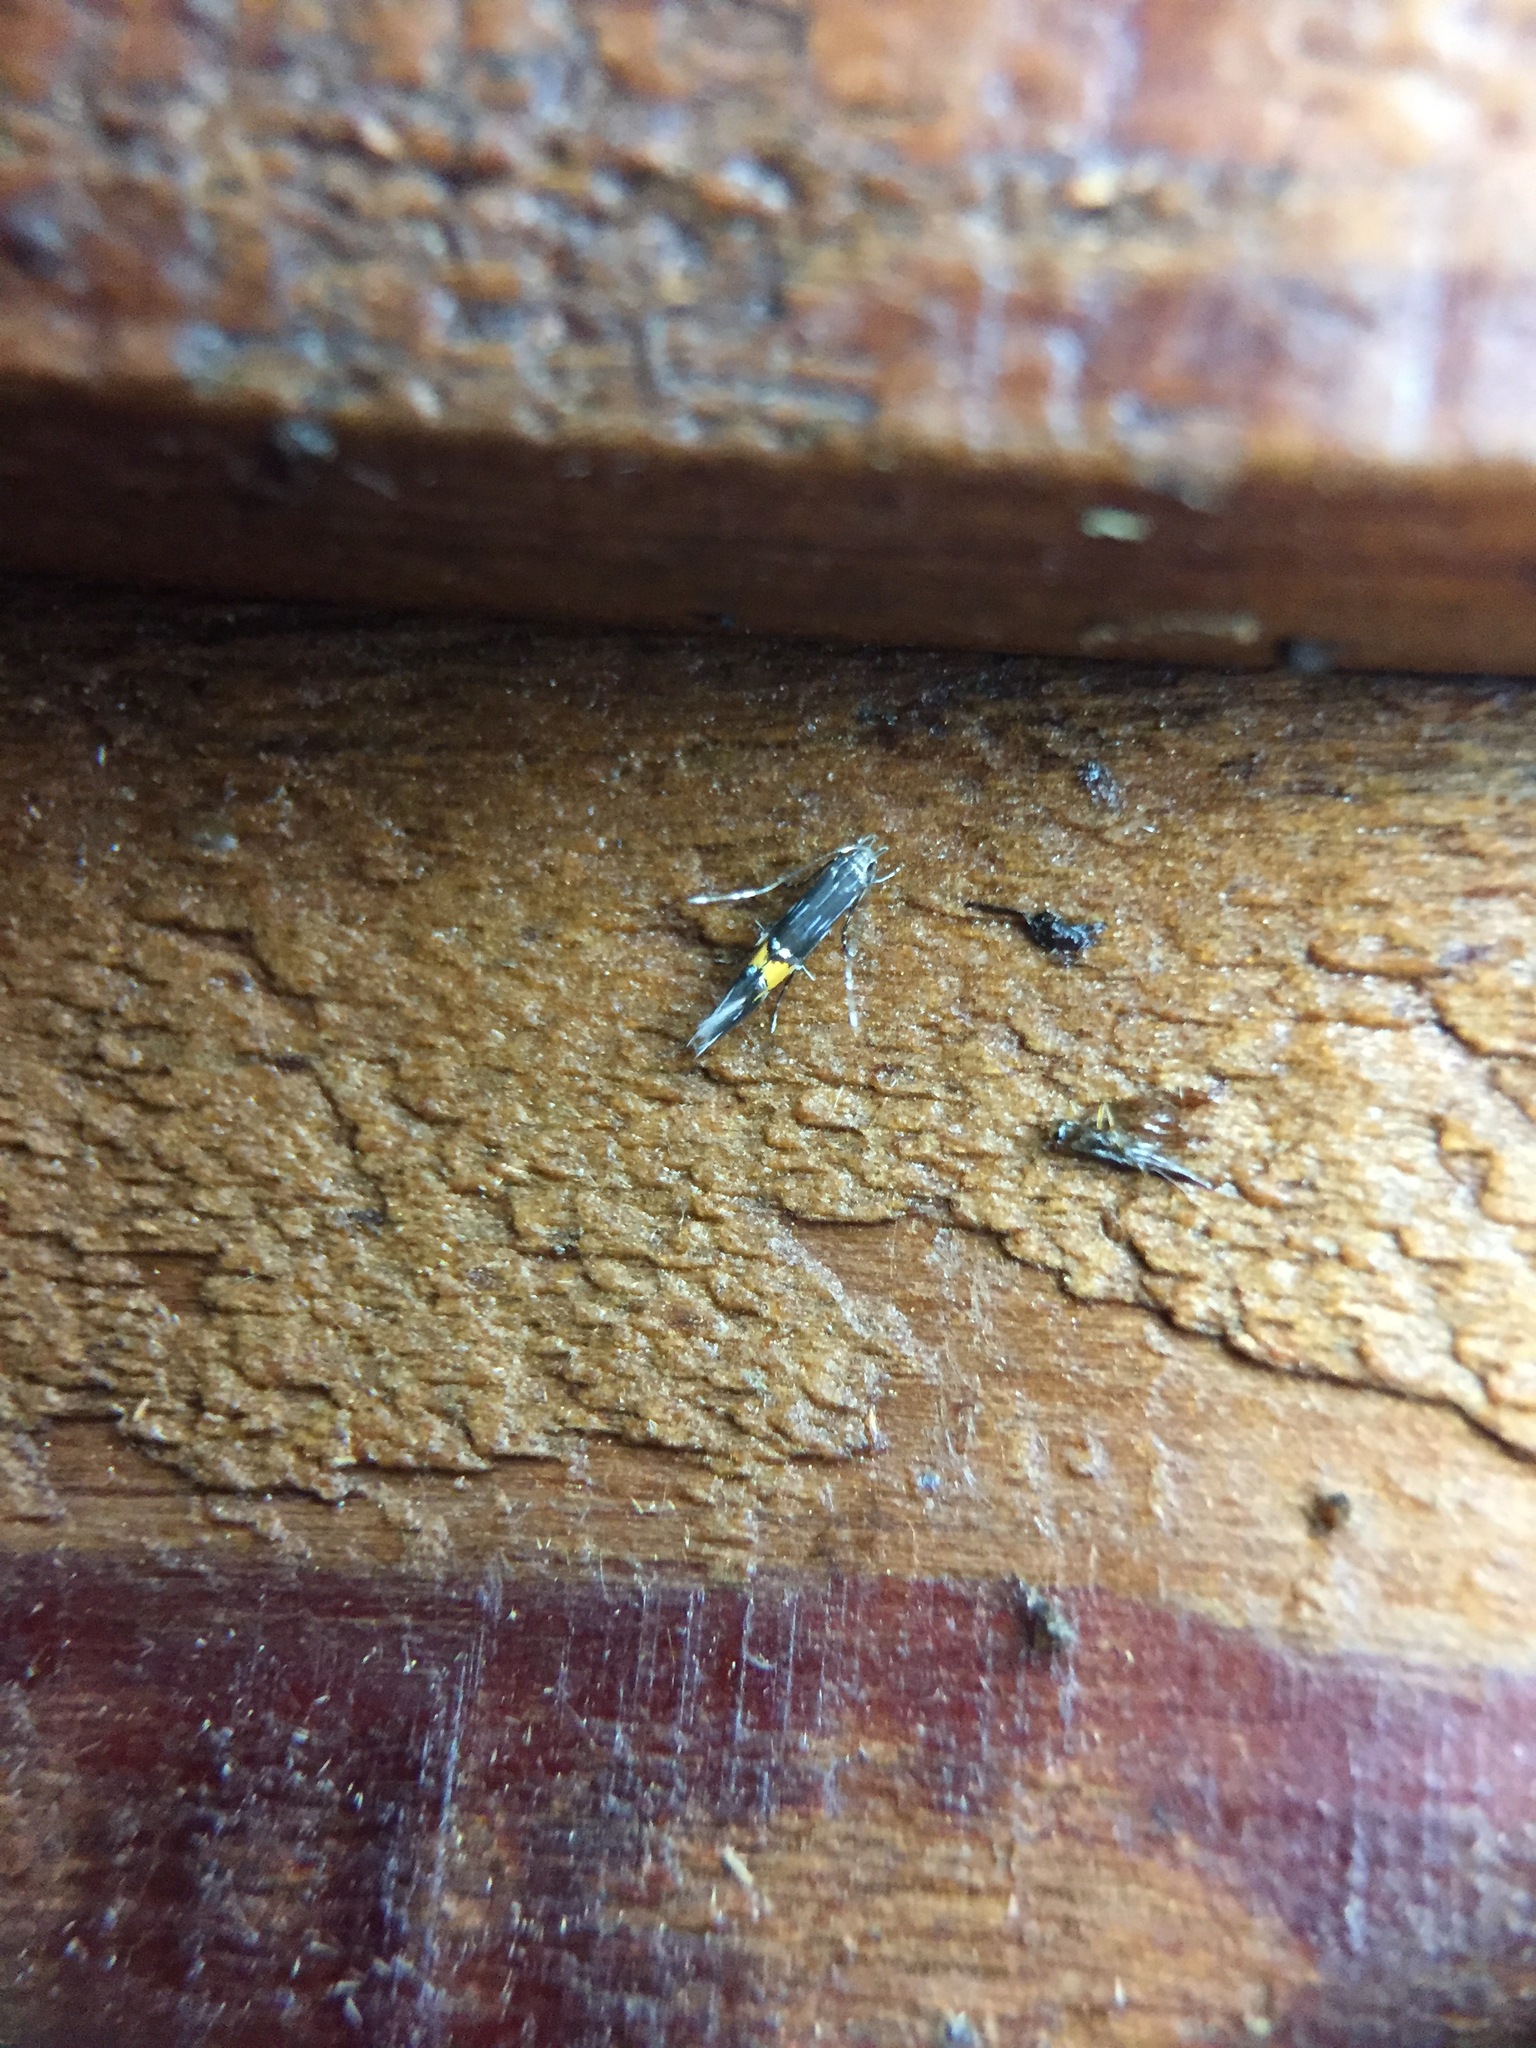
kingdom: Animalia
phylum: Arthropoda
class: Insecta
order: Lepidoptera
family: Cosmopterigidae
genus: Cosmopterix
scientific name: Cosmopterix attenuatella
